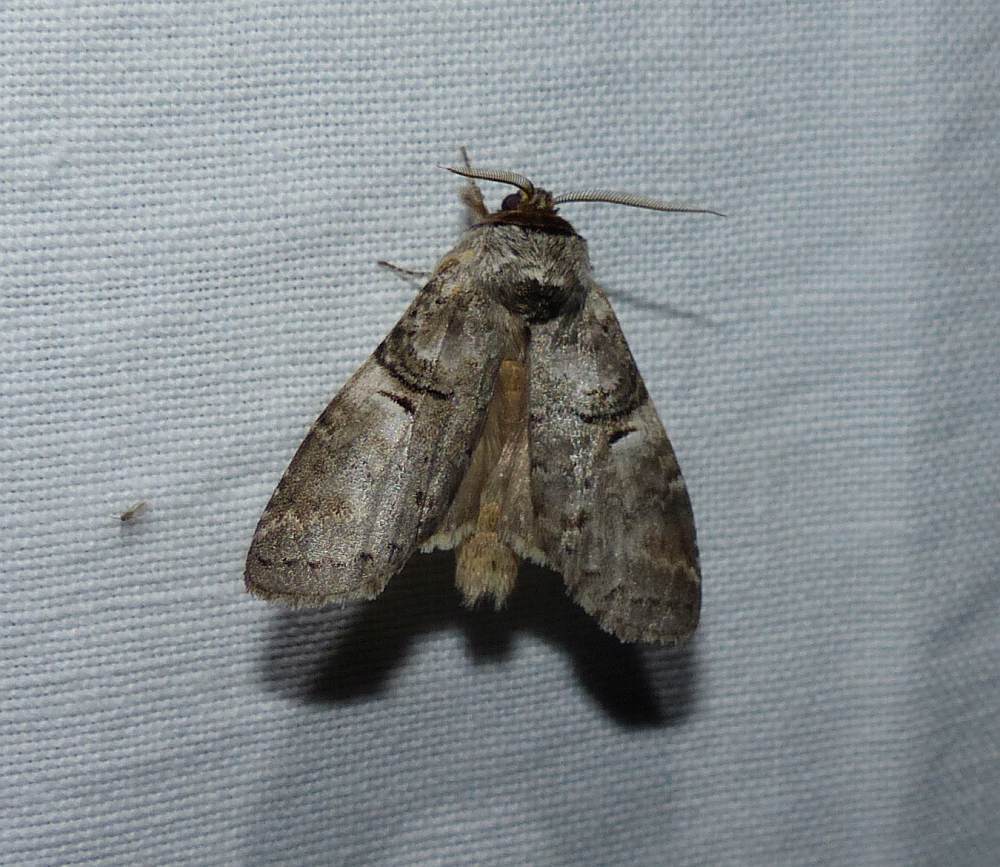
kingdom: Animalia
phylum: Arthropoda
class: Insecta
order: Lepidoptera
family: Notodontidae
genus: Ellida
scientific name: Ellida caniplaga
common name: Linden prominent
